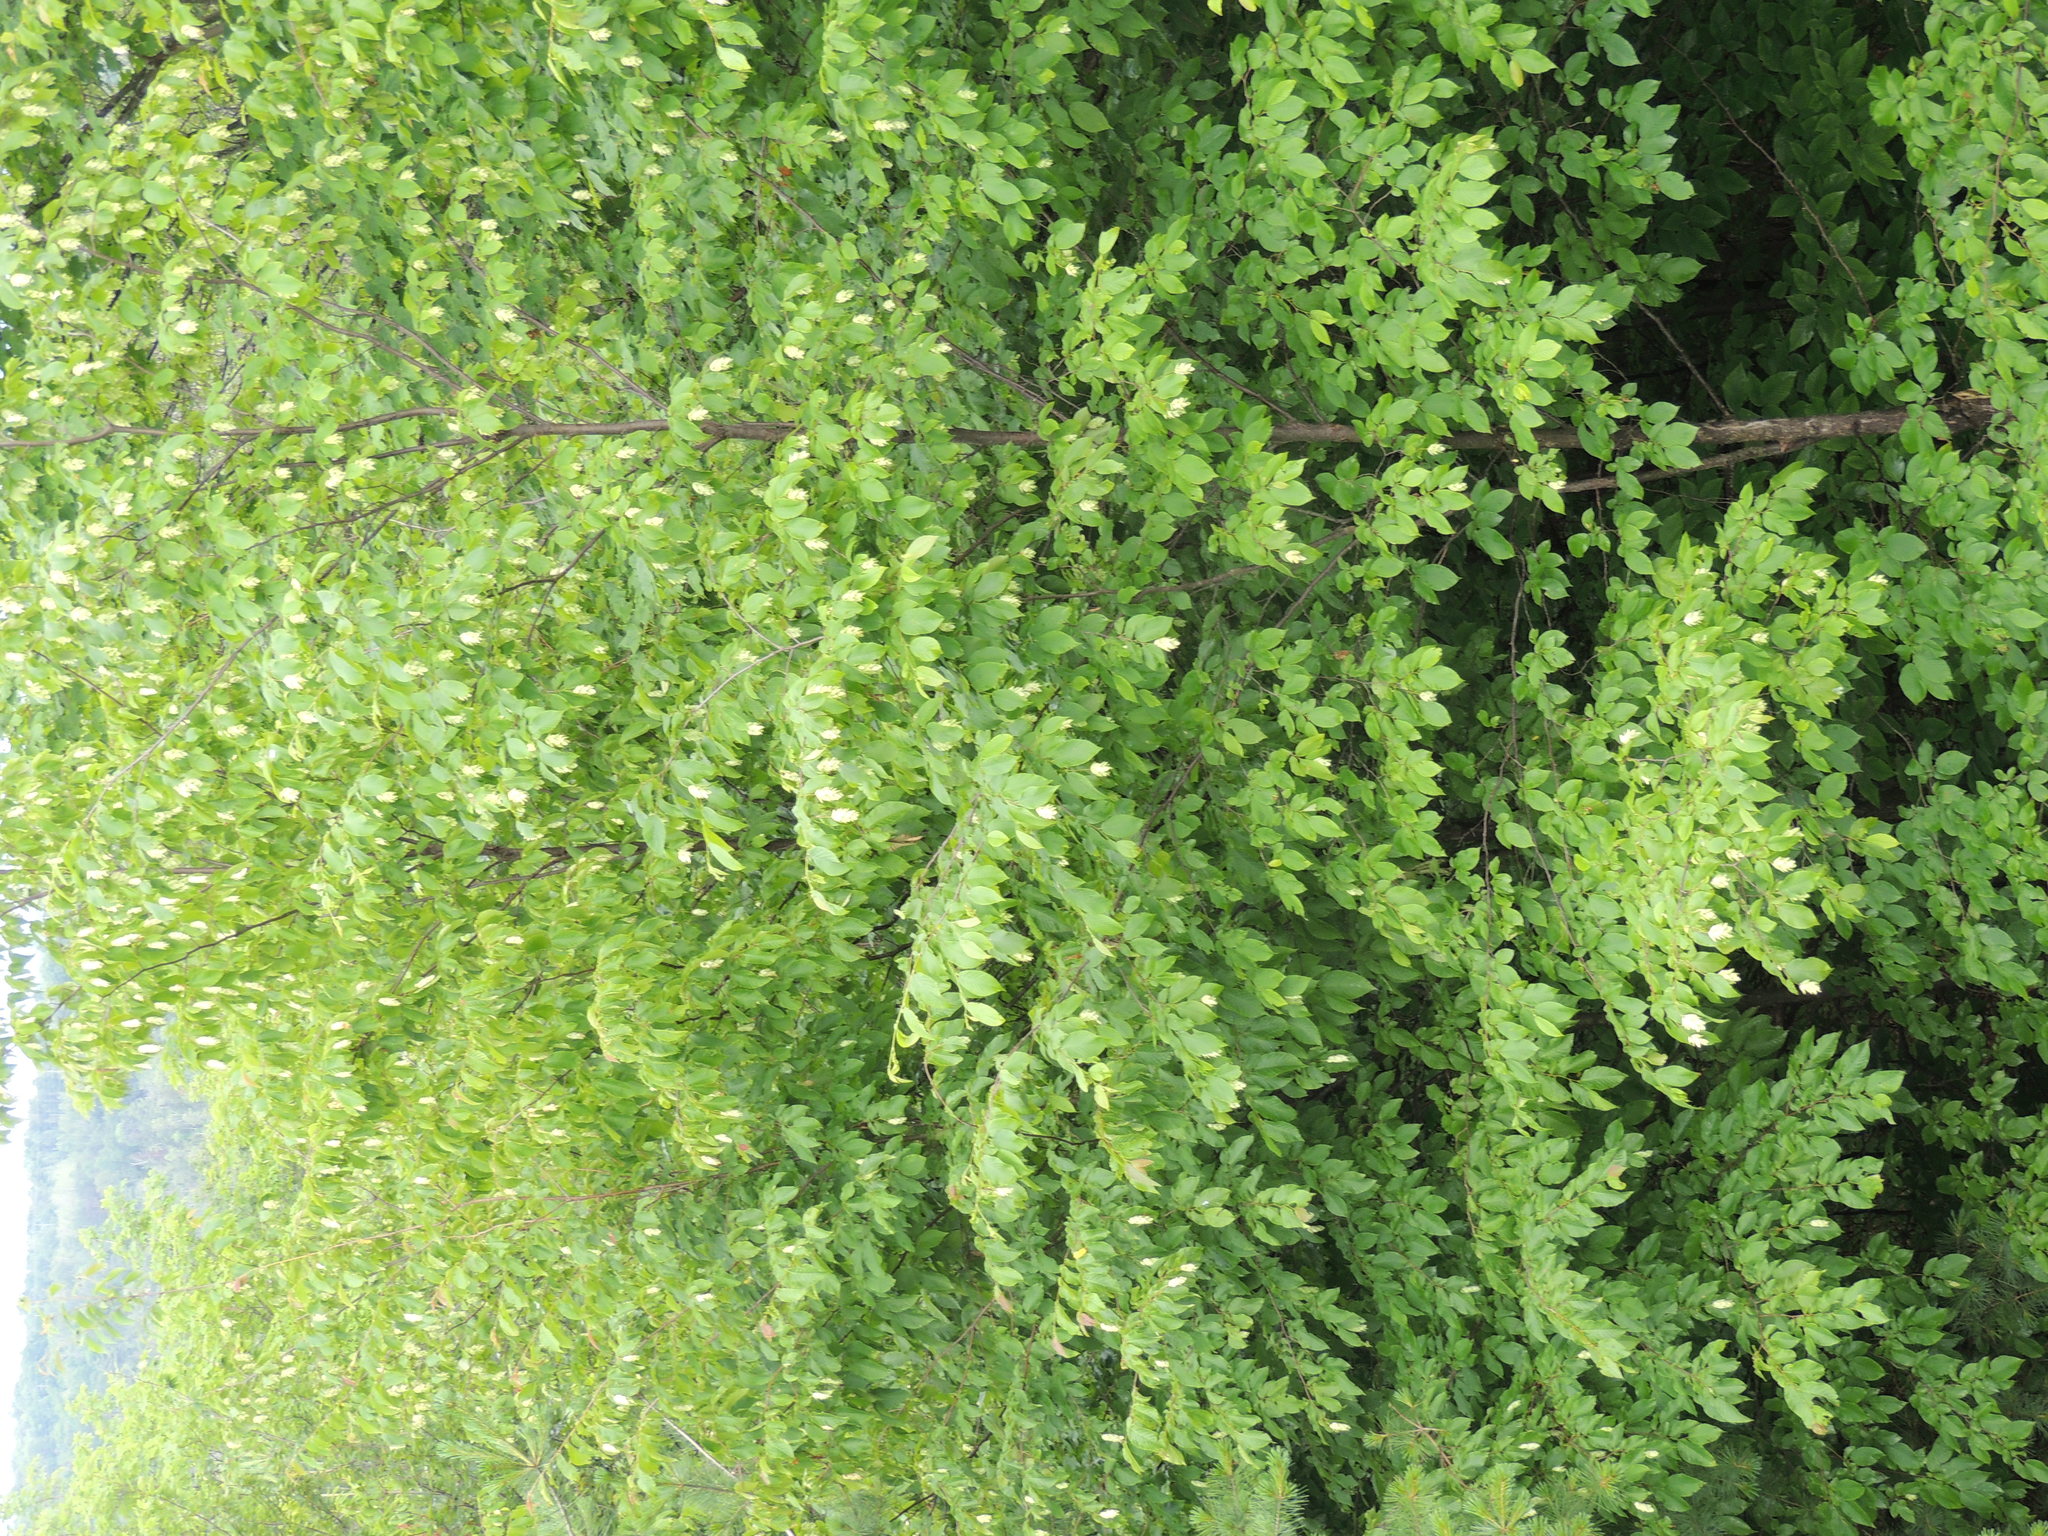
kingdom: Plantae
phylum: Tracheophyta
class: Magnoliopsida
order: Fagales
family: Betulaceae
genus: Ostrya
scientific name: Ostrya virginiana
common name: Ironwood
